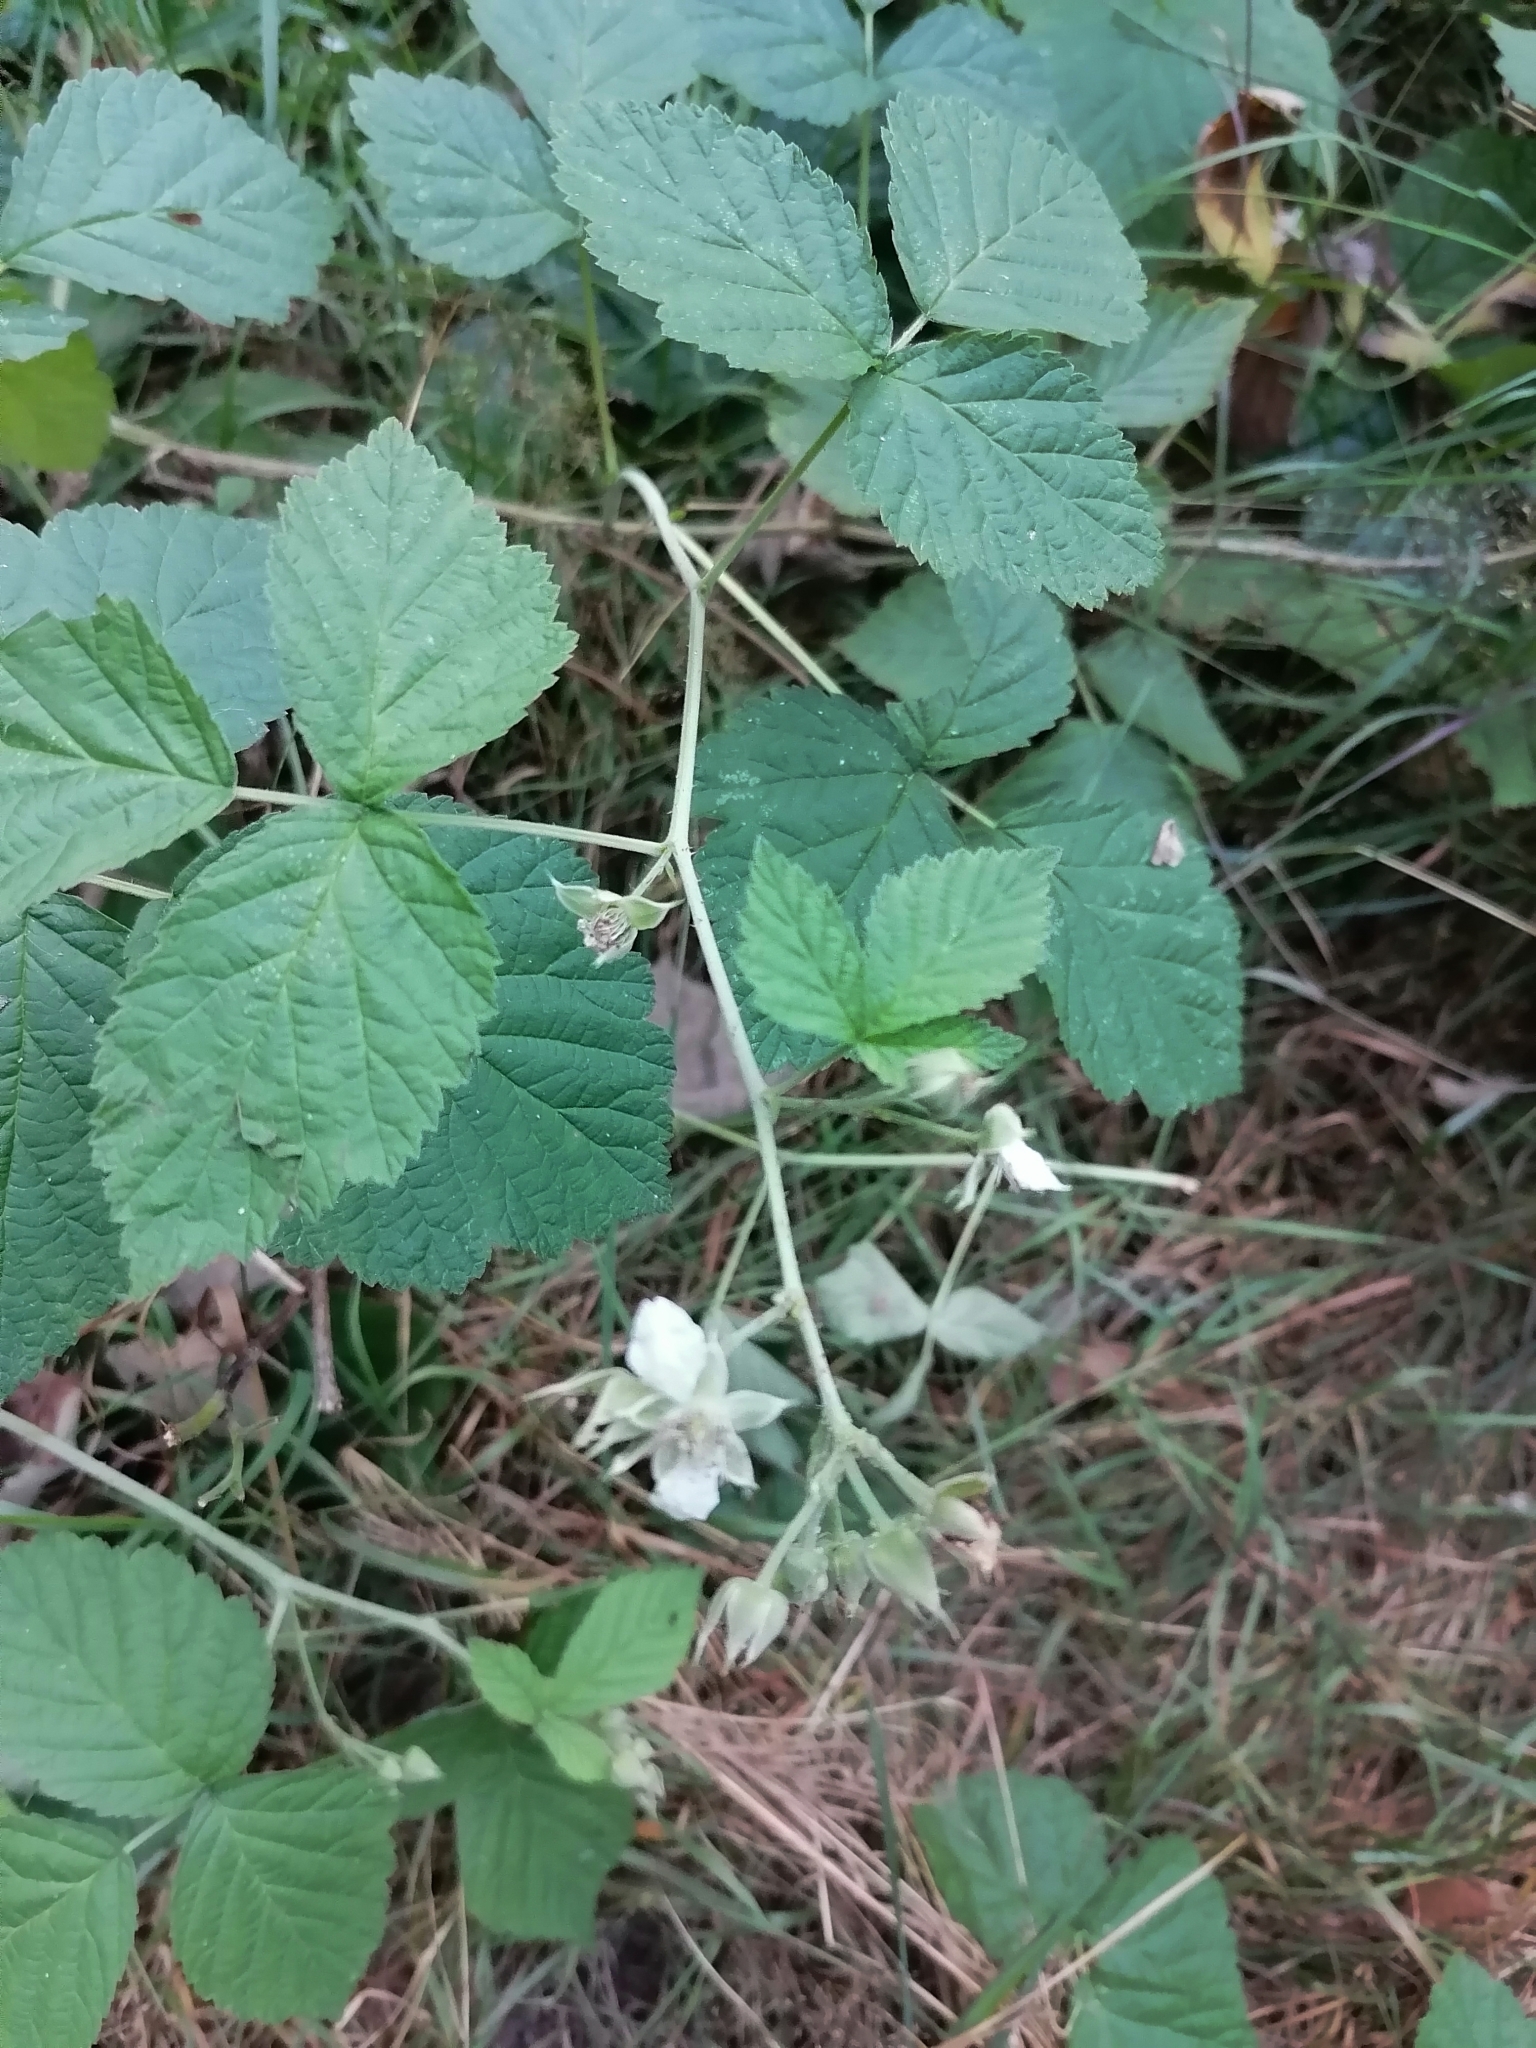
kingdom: Plantae
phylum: Tracheophyta
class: Magnoliopsida
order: Rosales
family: Rosaceae
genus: Rubus
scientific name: Rubus caesius
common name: Dewberry
